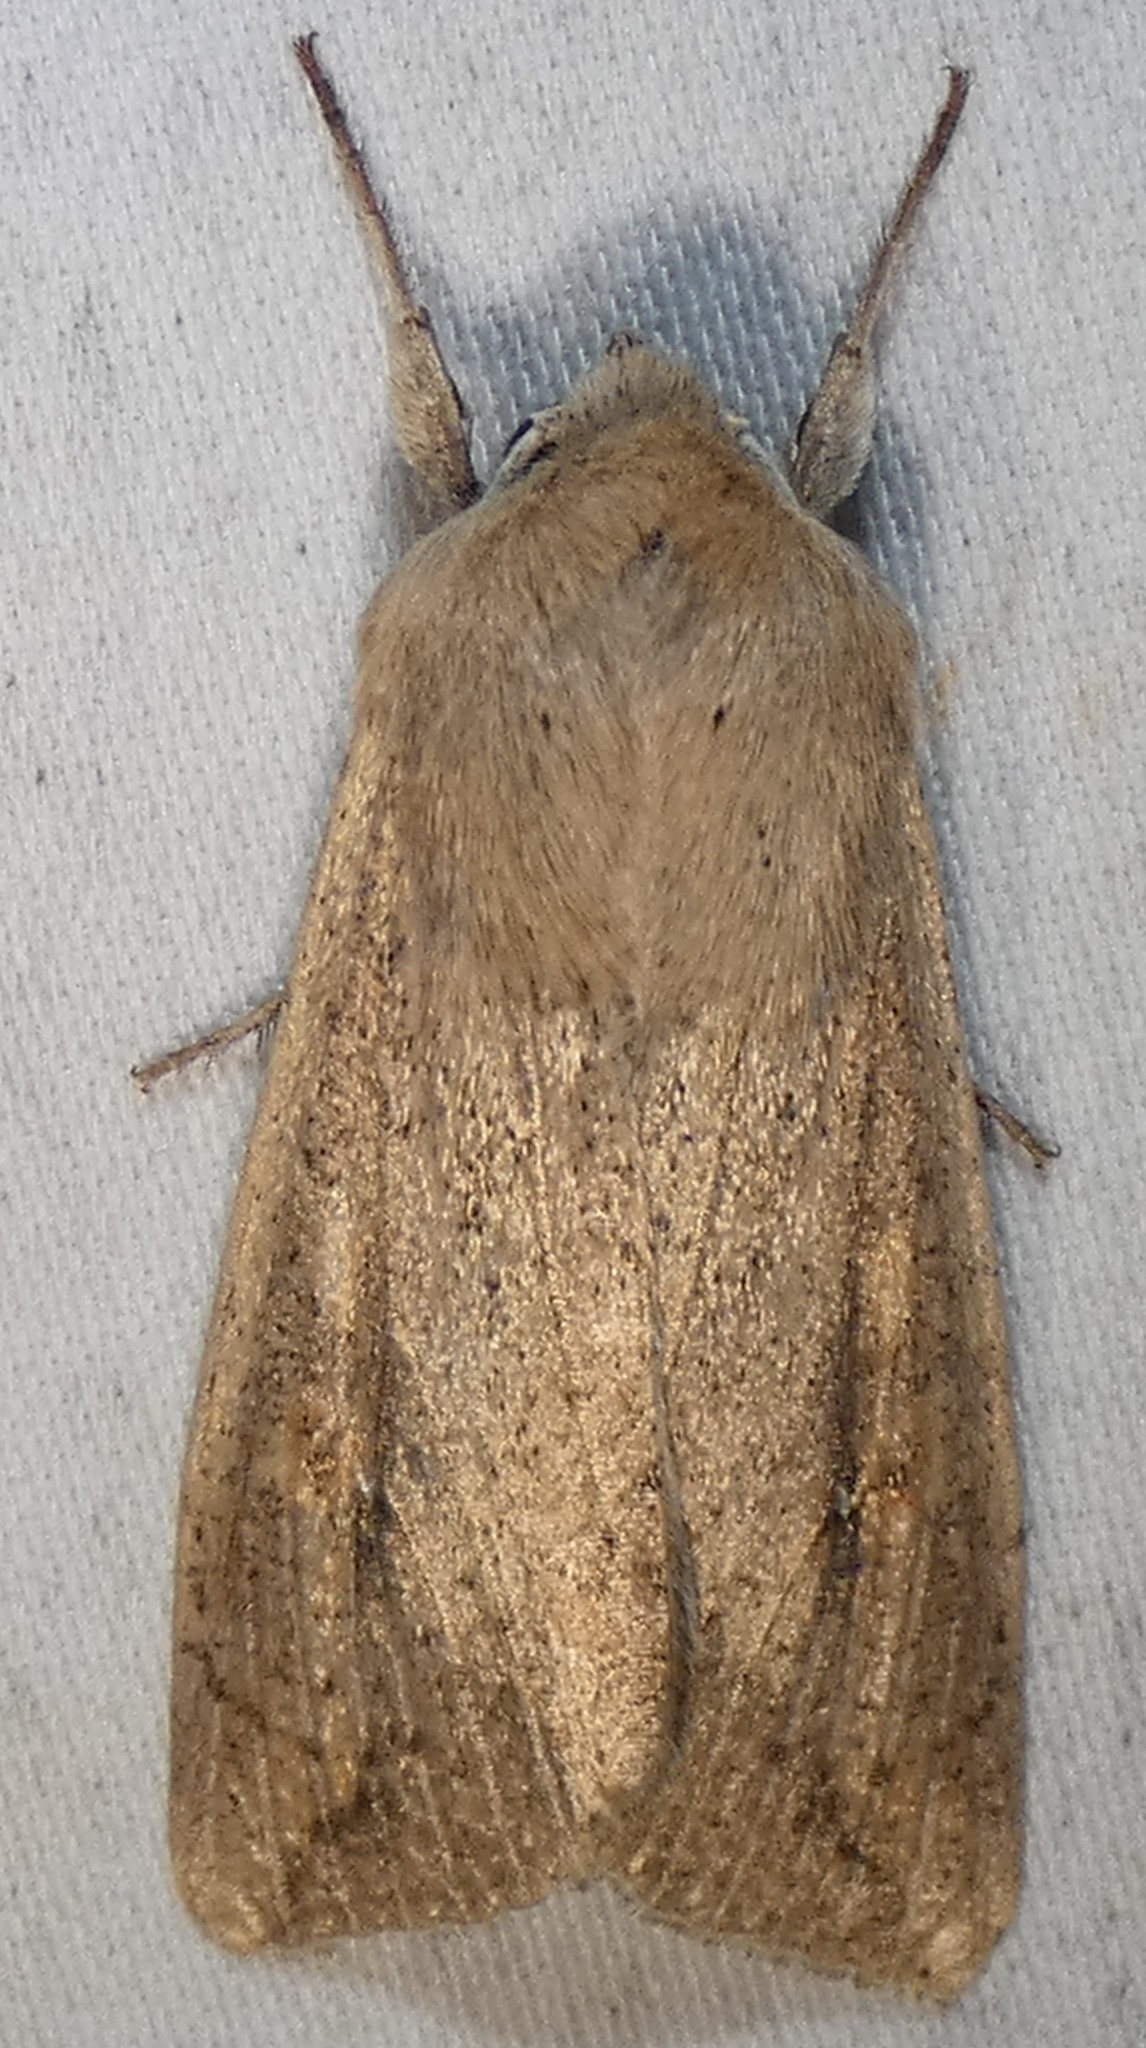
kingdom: Animalia
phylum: Arthropoda
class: Insecta
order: Lepidoptera
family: Noctuidae
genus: Mythimna
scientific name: Mythimna unipuncta
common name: White-speck
